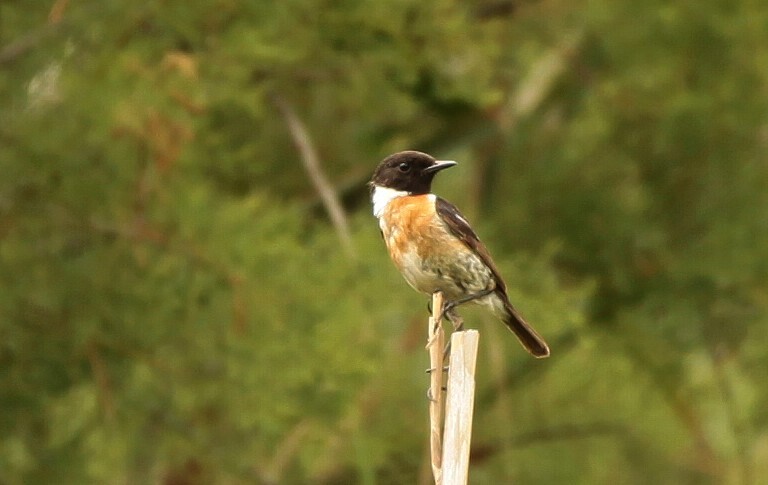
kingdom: Animalia
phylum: Chordata
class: Aves
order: Passeriformes
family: Muscicapidae
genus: Saxicola
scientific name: Saxicola rubicola
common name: European stonechat
